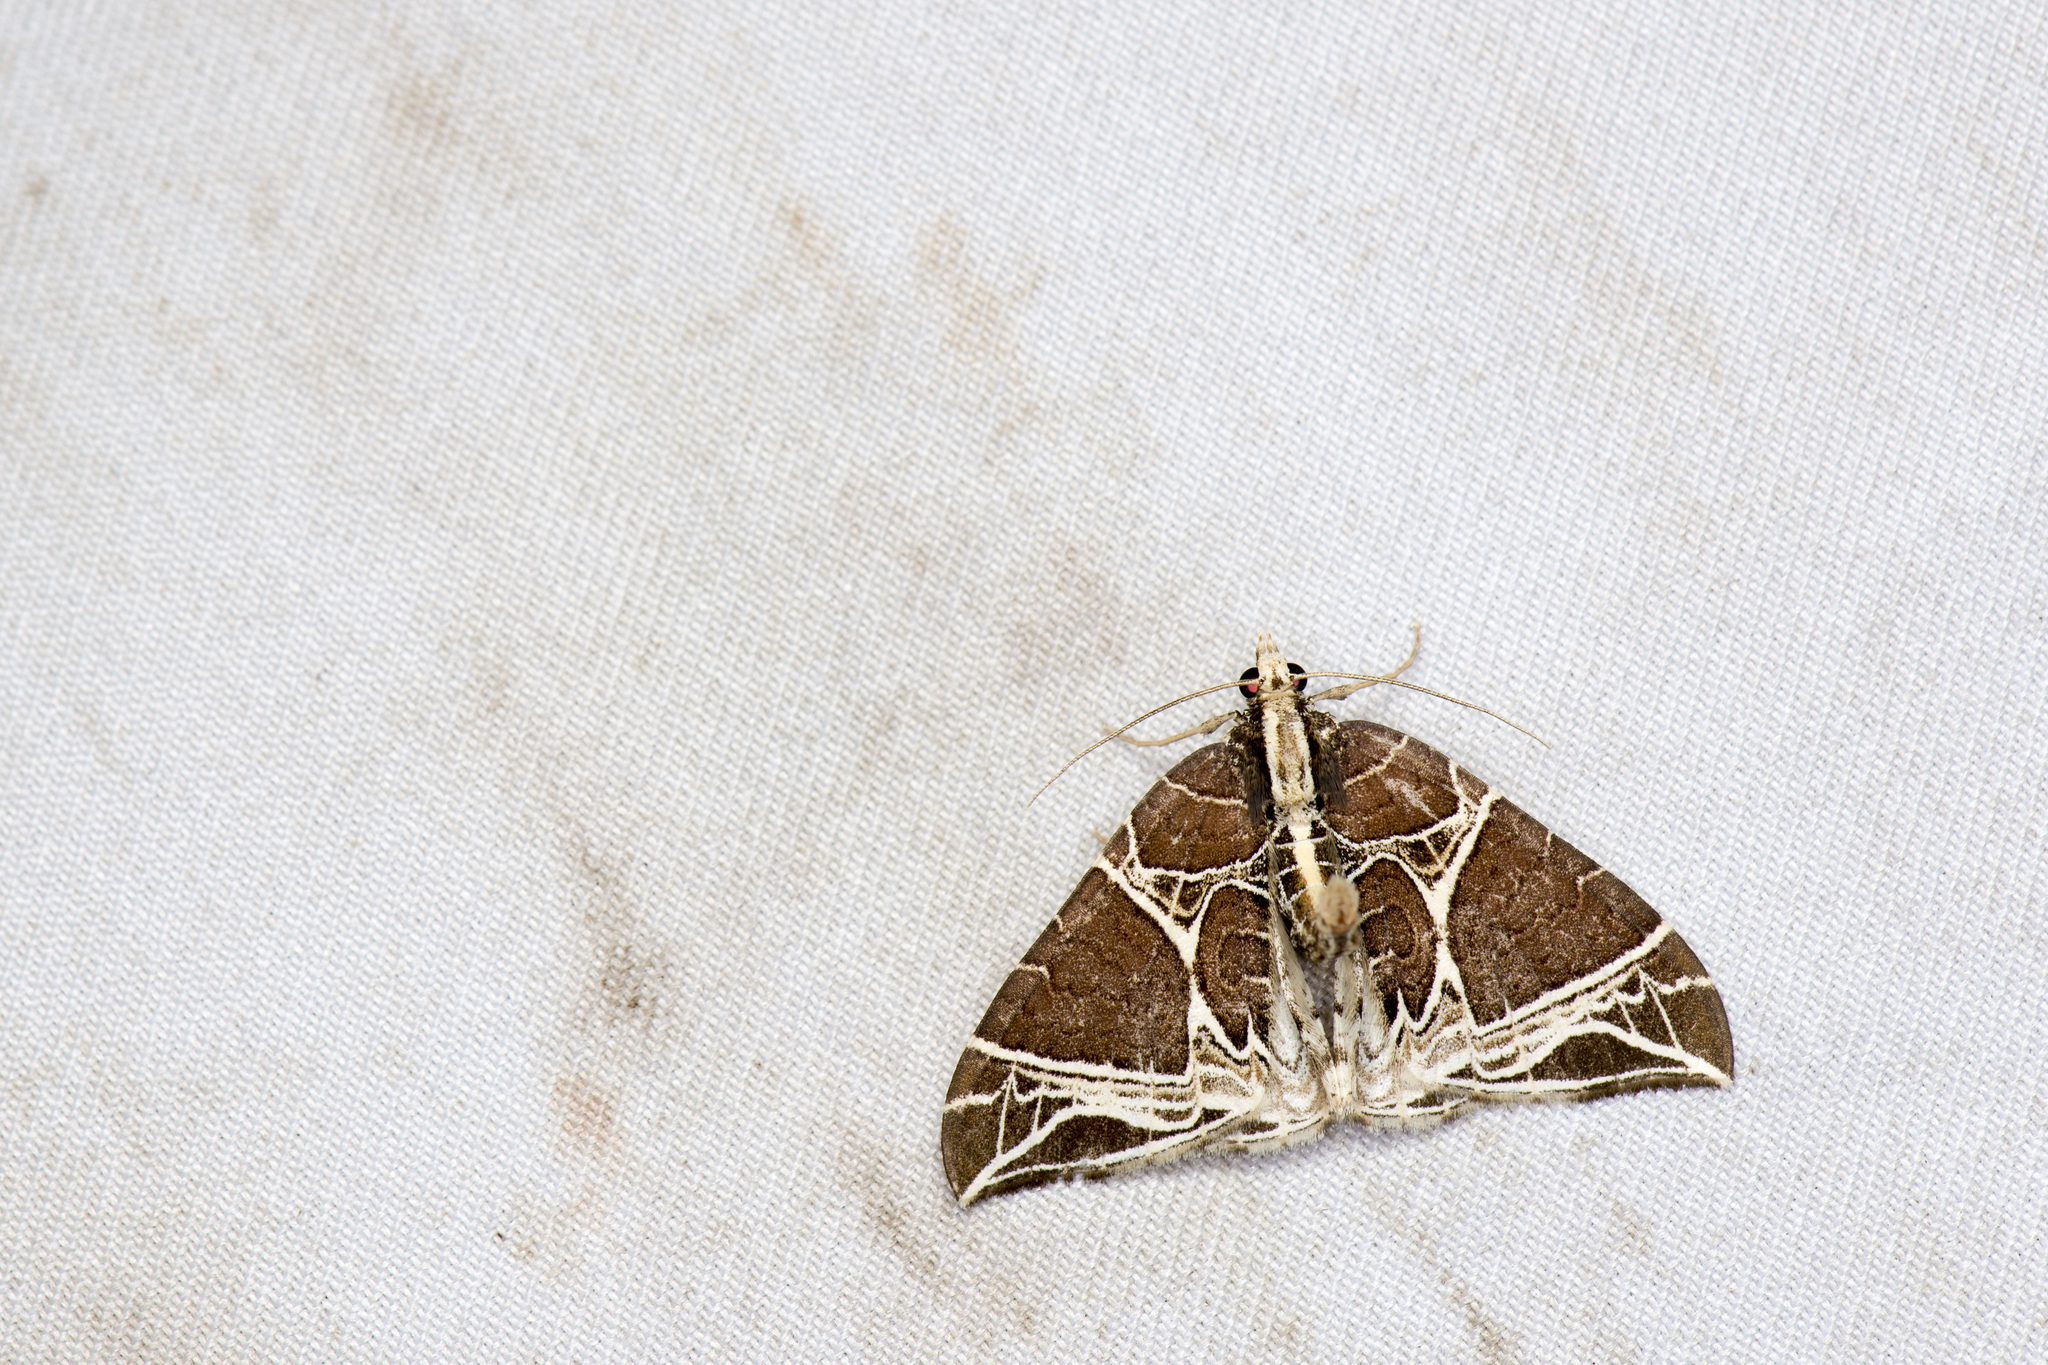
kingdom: Animalia
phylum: Arthropoda
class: Insecta
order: Lepidoptera
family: Geometridae
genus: Ecliptopera
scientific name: Ecliptopera benigna
